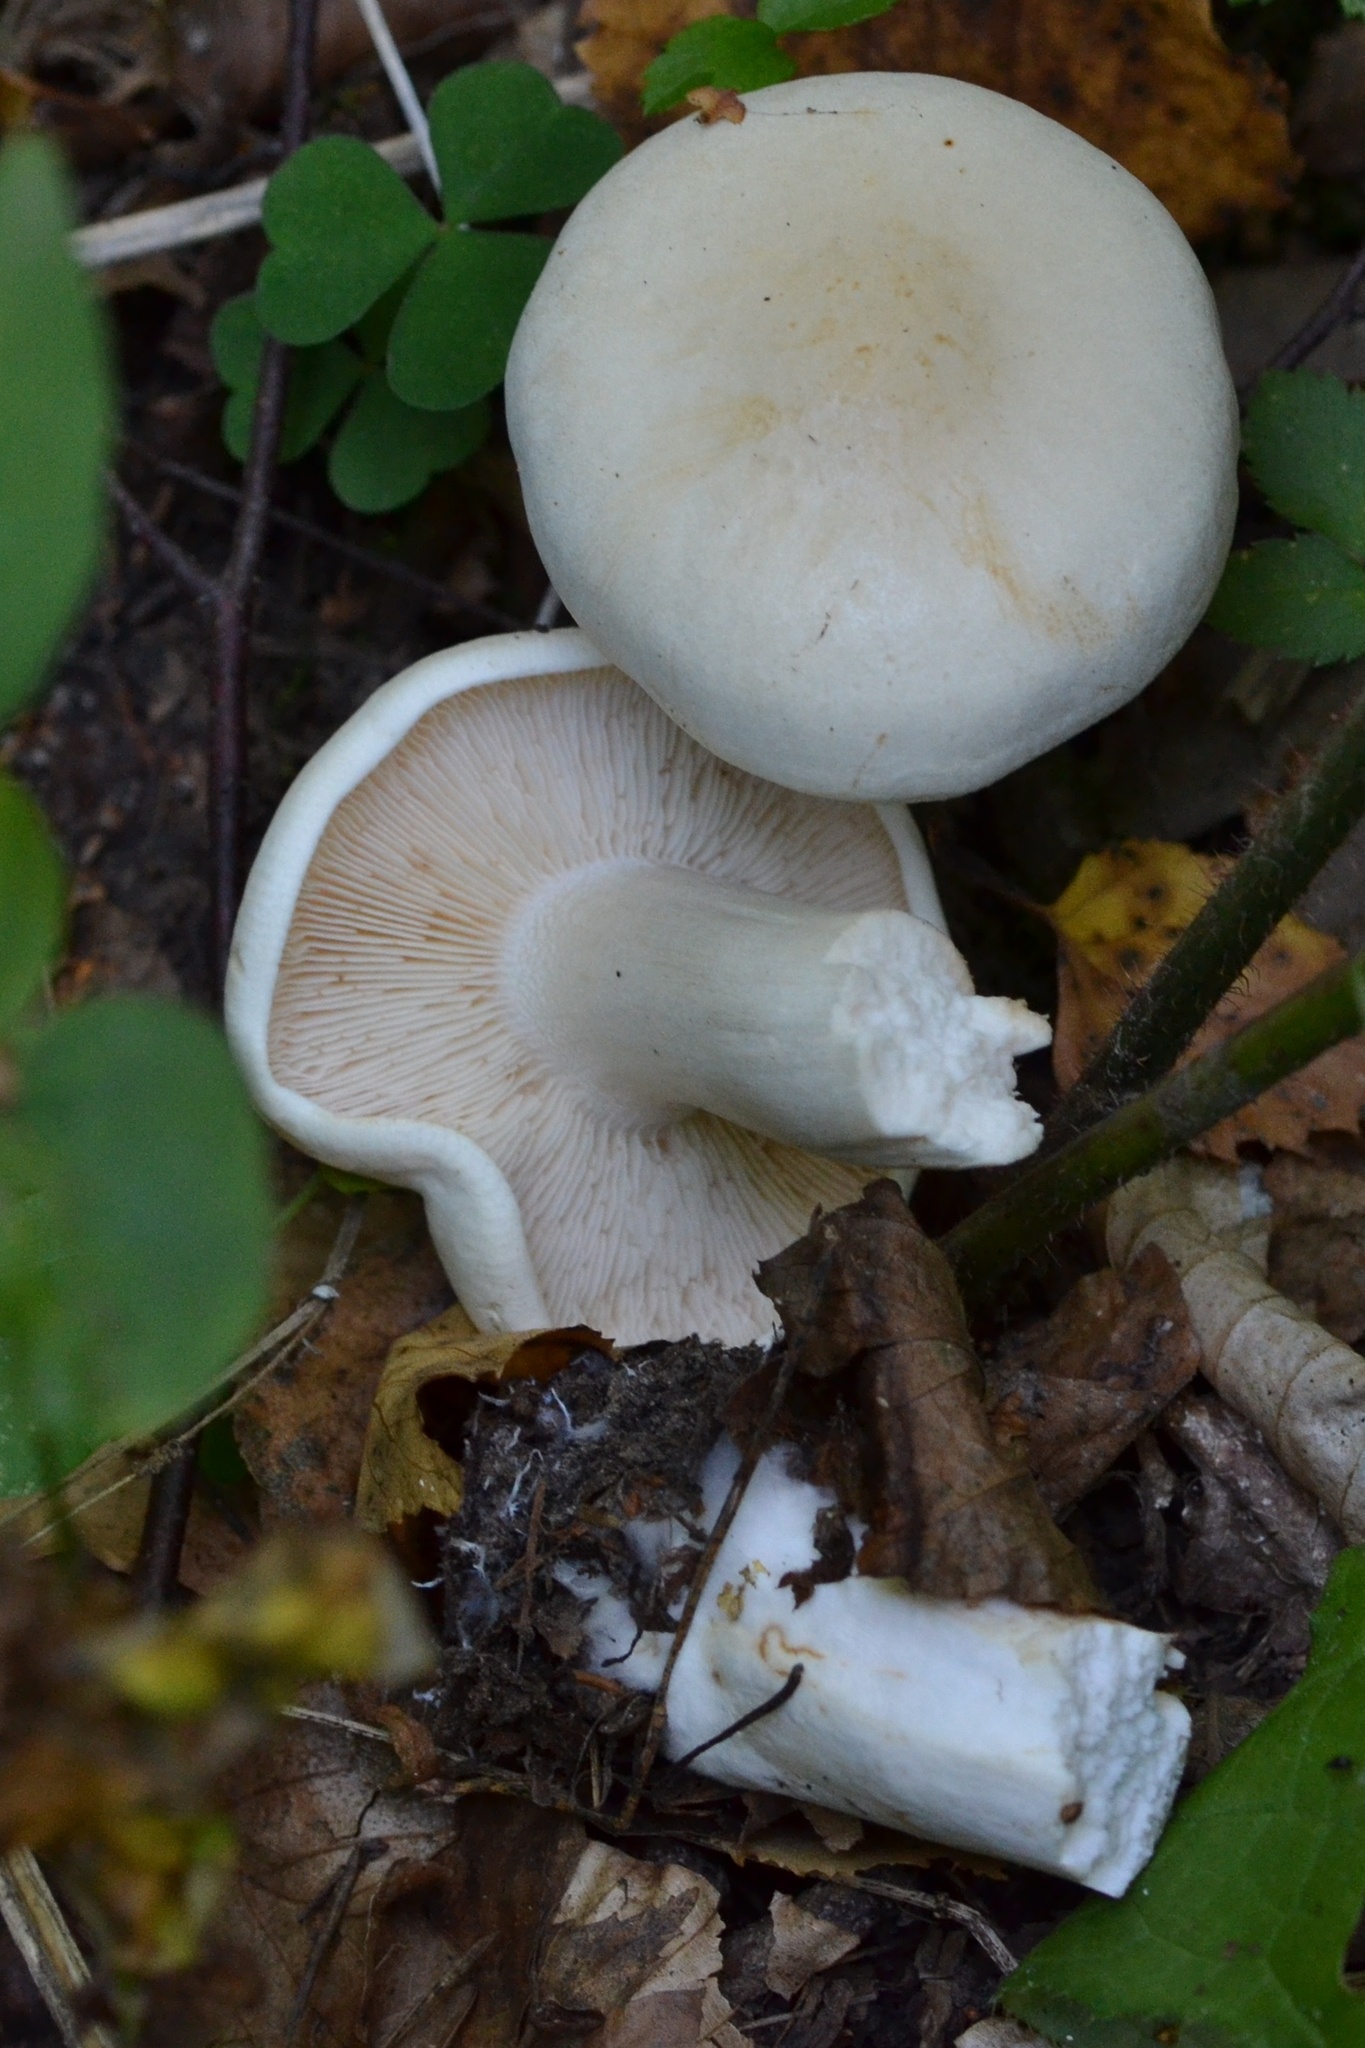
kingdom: Fungi
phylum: Basidiomycota
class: Agaricomycetes
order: Agaricales
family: Tricholomataceae
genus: Tricholoma
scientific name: Tricholoma stiparophyllum
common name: Chemical knight
